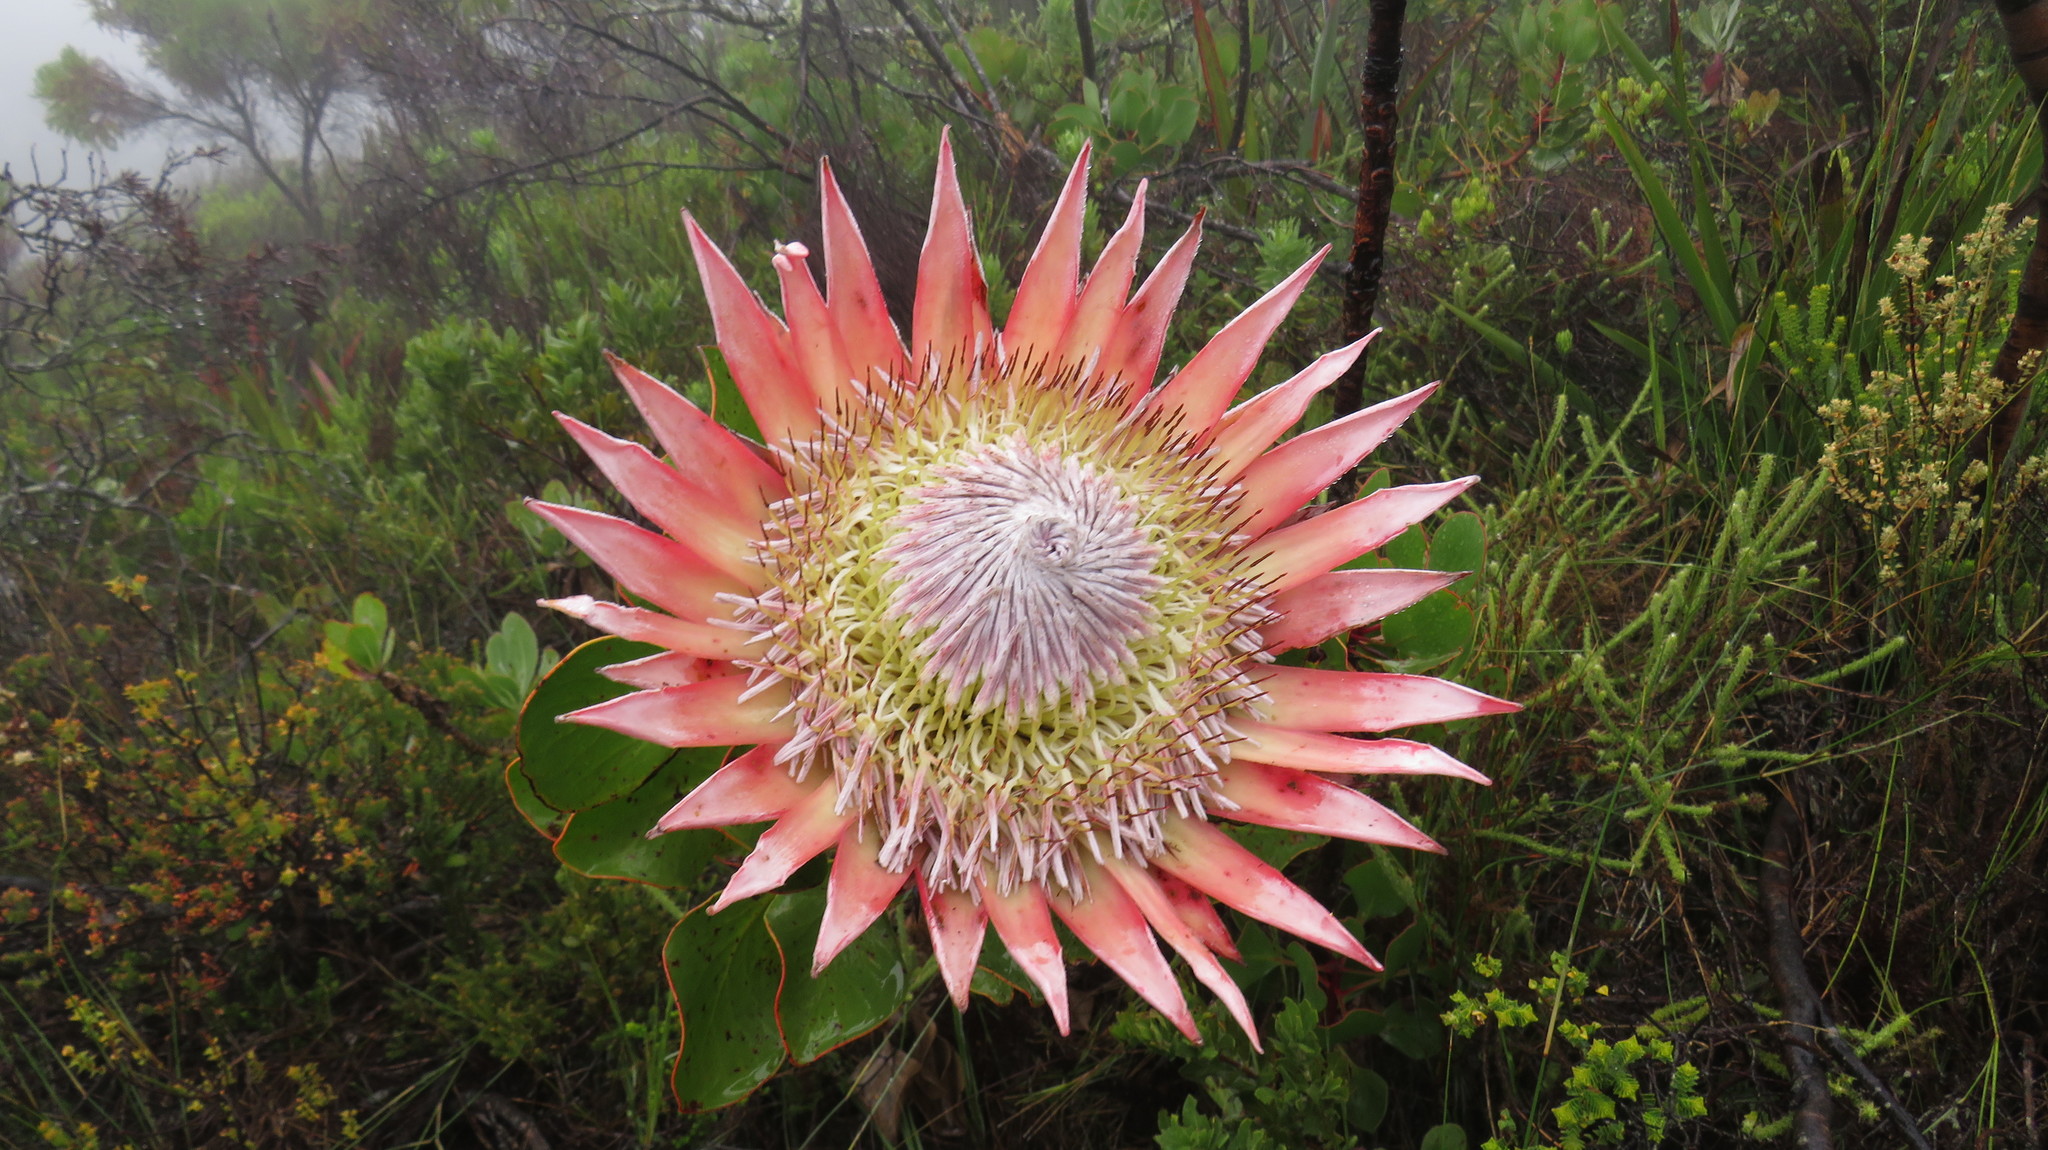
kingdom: Plantae
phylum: Tracheophyta
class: Magnoliopsida
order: Proteales
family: Proteaceae
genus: Protea
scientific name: Protea cynaroides
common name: King protea
